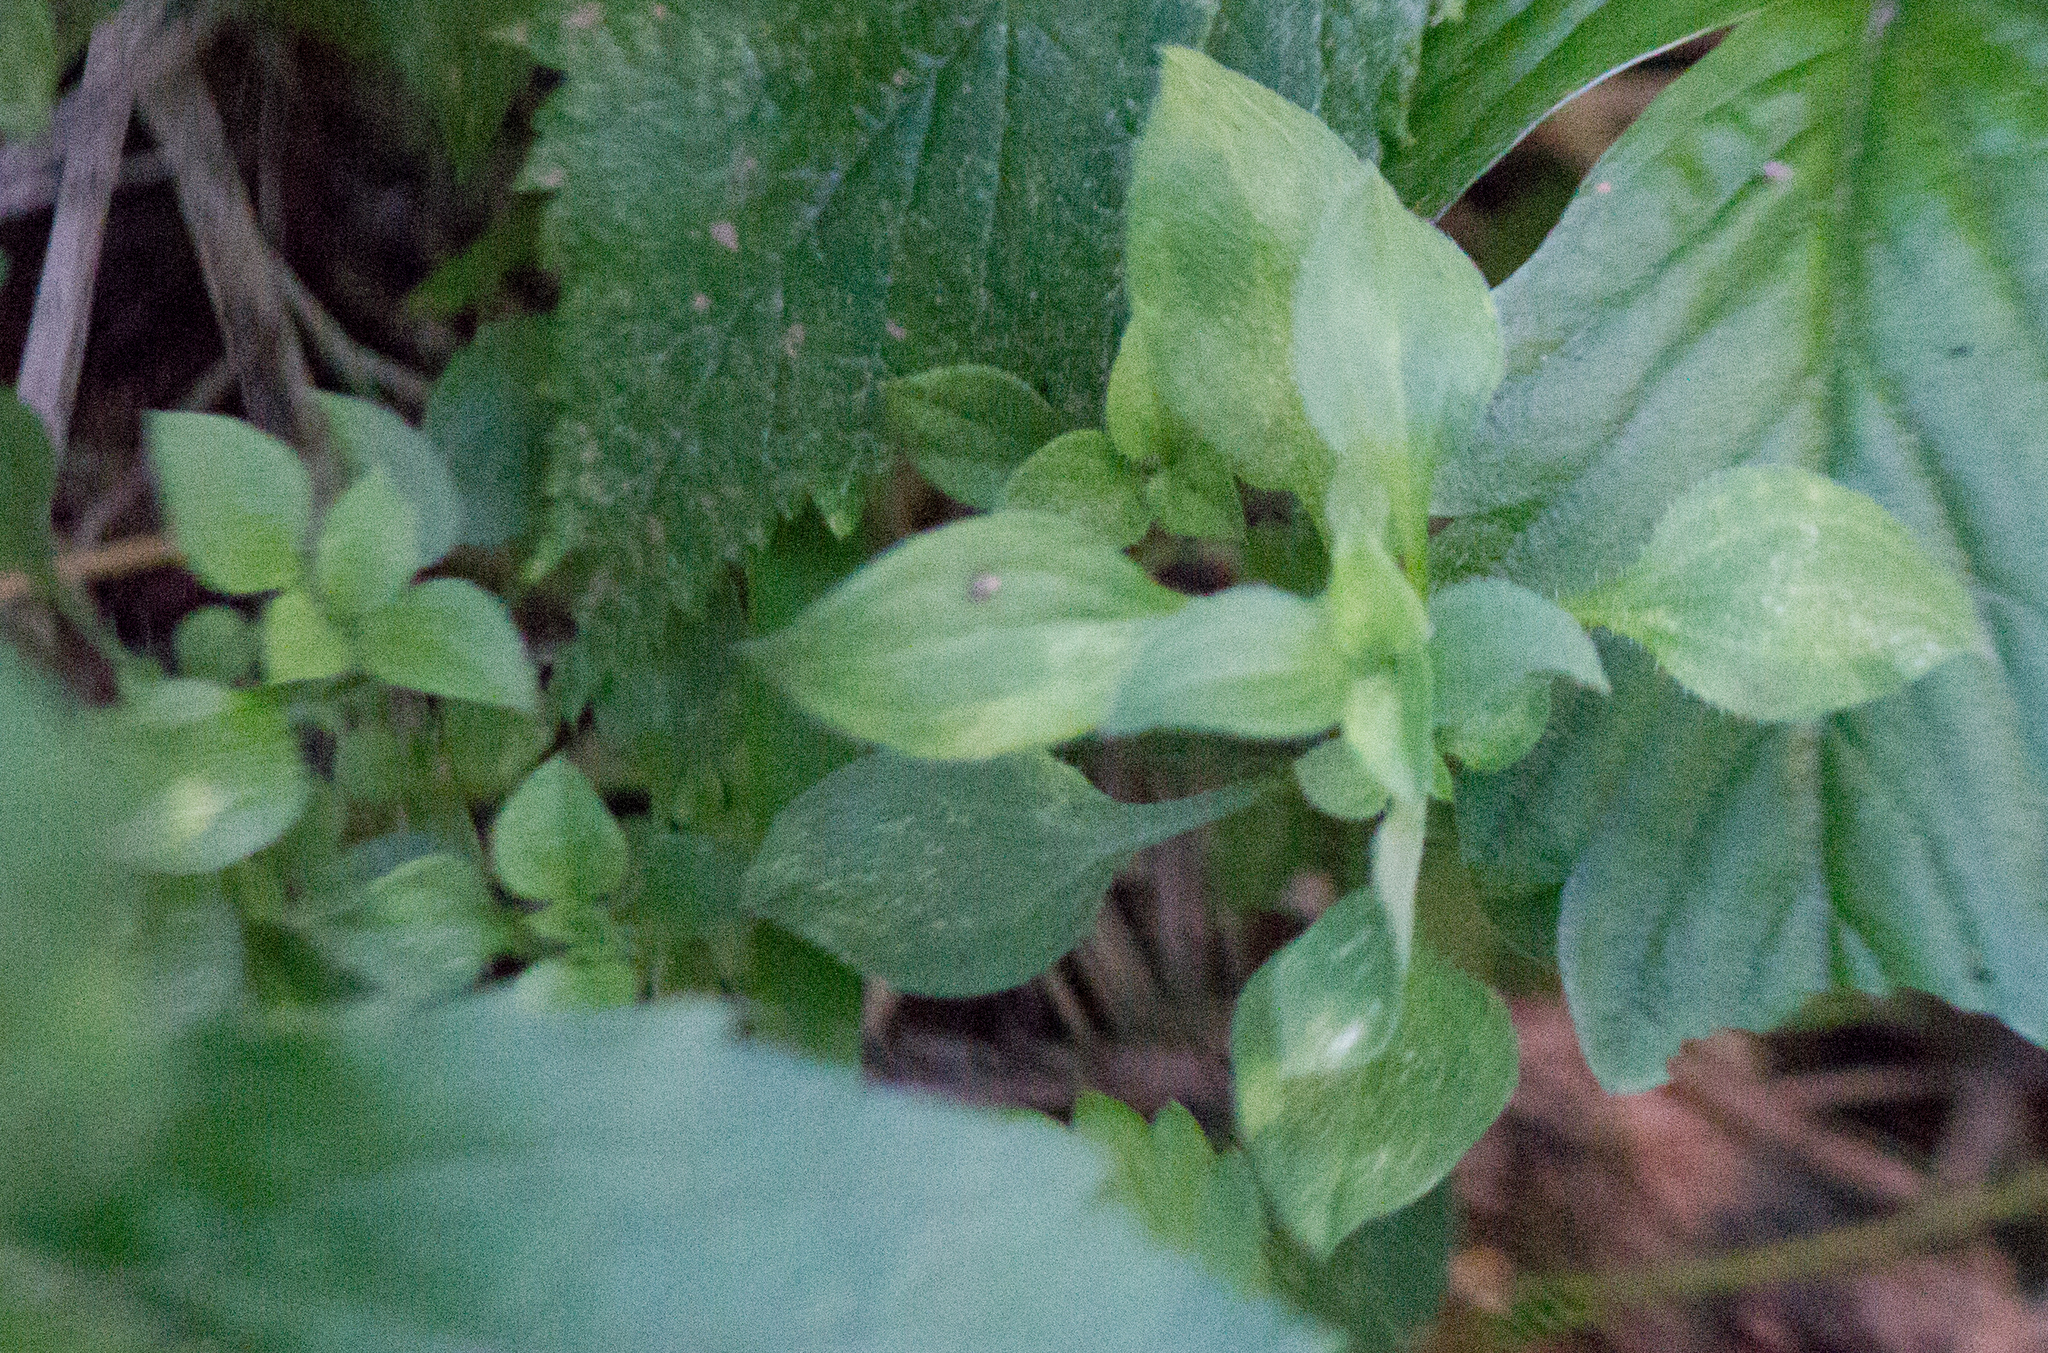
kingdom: Plantae
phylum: Tracheophyta
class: Magnoliopsida
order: Caryophyllales
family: Caryophyllaceae
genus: Moehringia
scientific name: Moehringia trinervia
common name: Three-nerved sandwort
